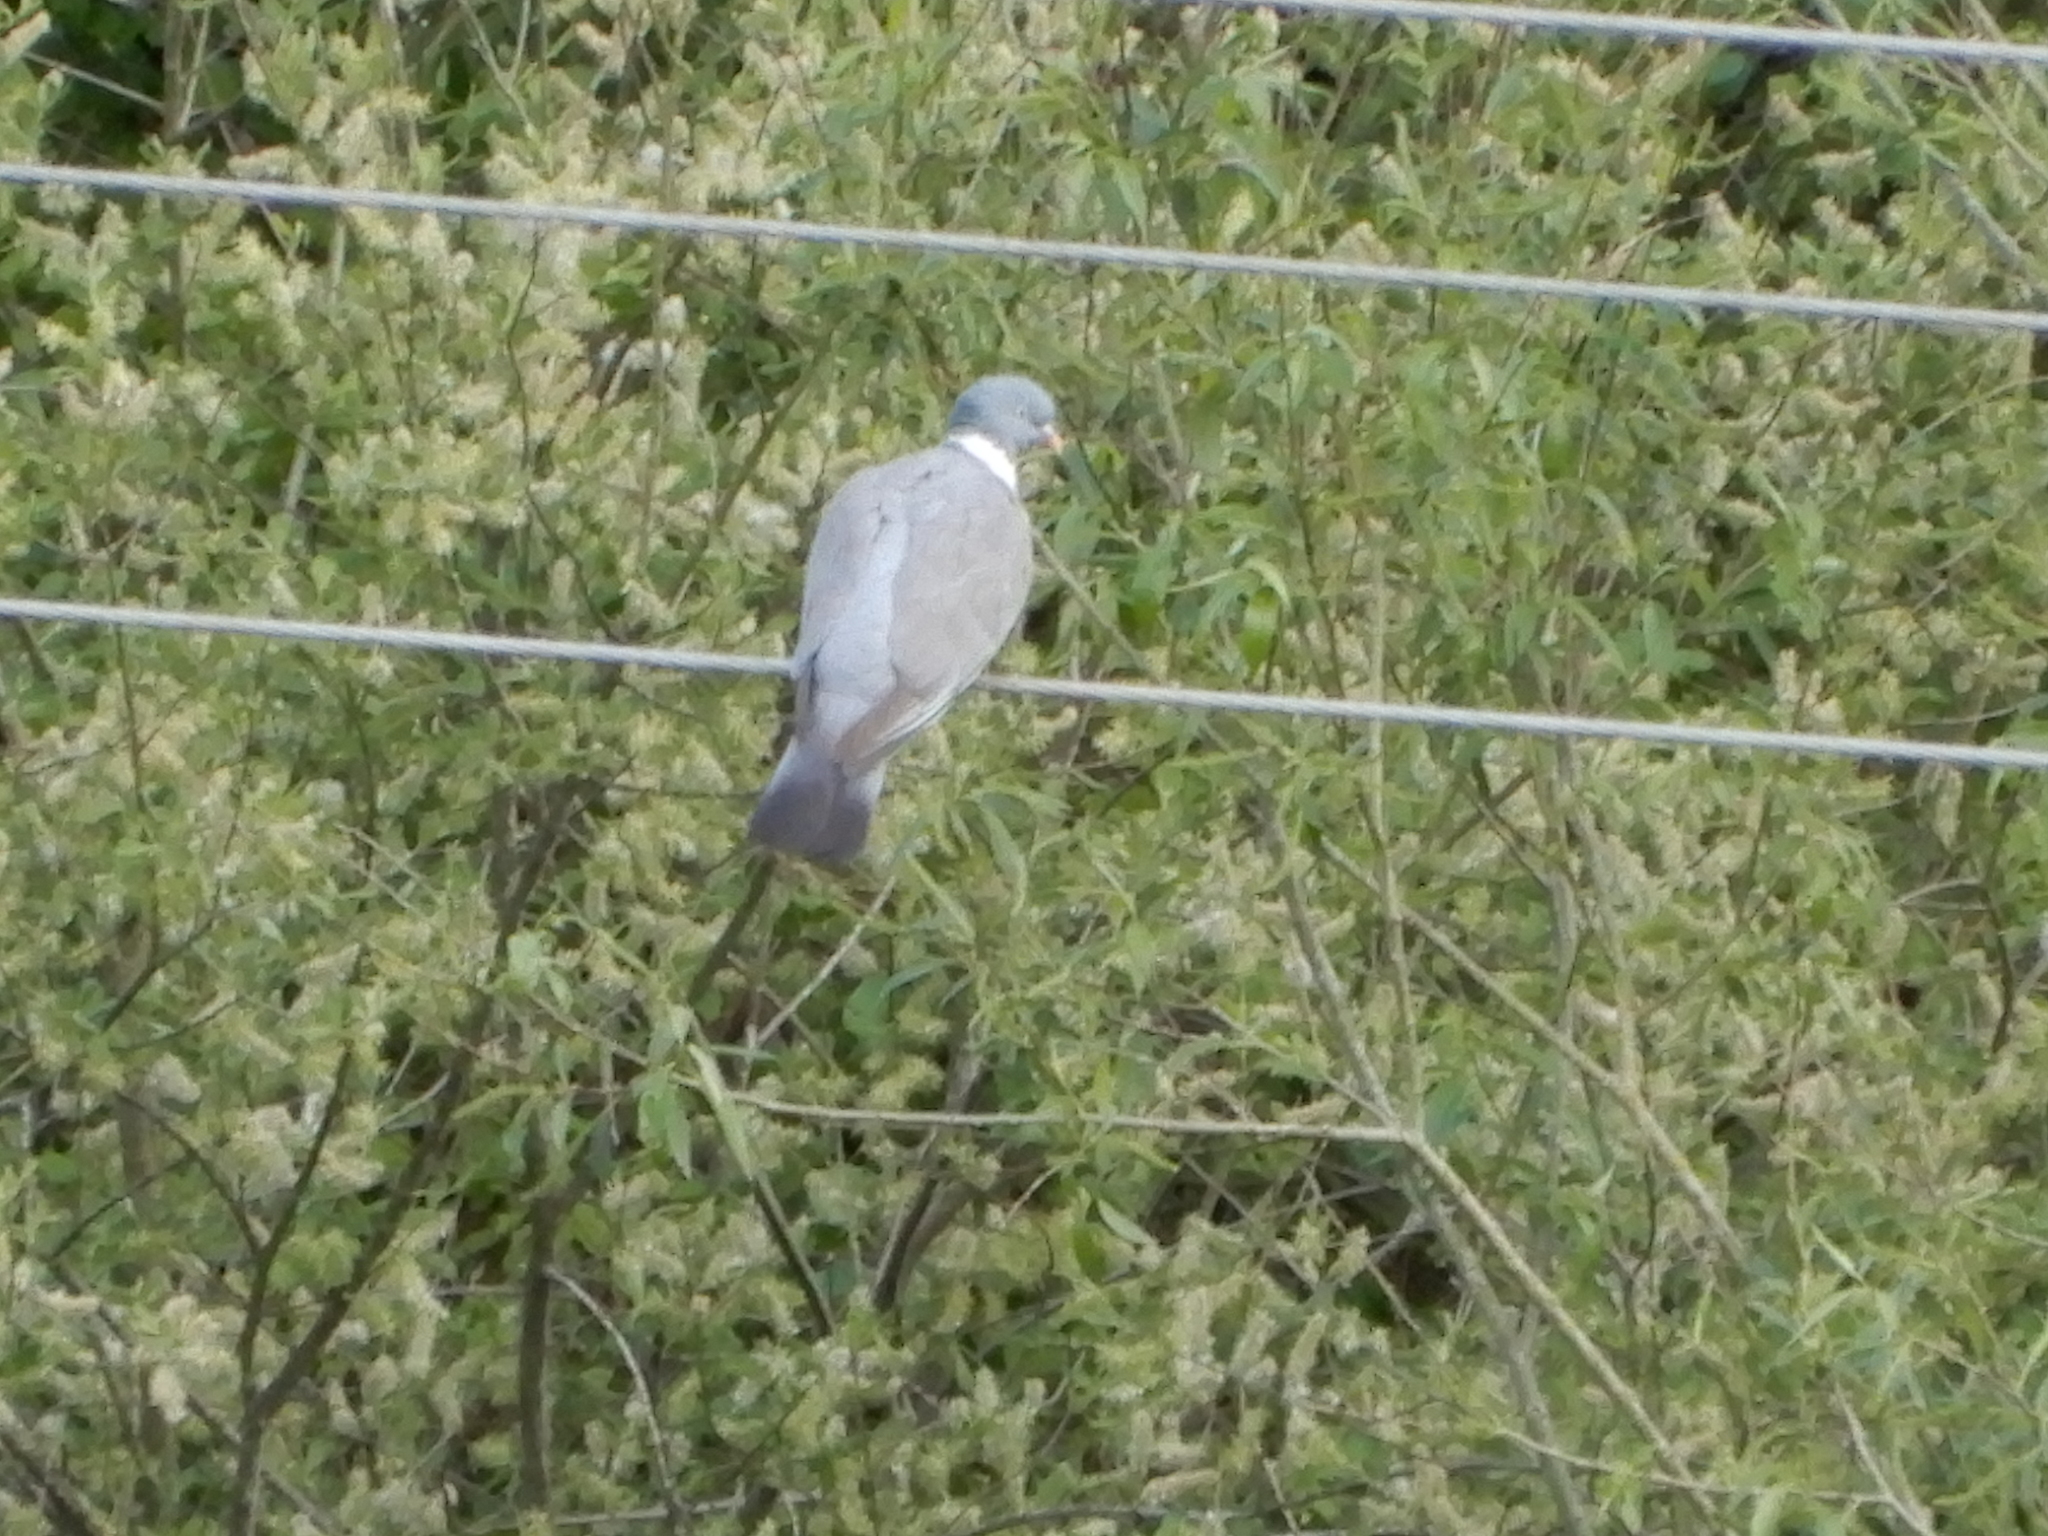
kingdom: Animalia
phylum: Chordata
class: Aves
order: Columbiformes
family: Columbidae
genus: Columba
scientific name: Columba palumbus
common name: Common wood pigeon
